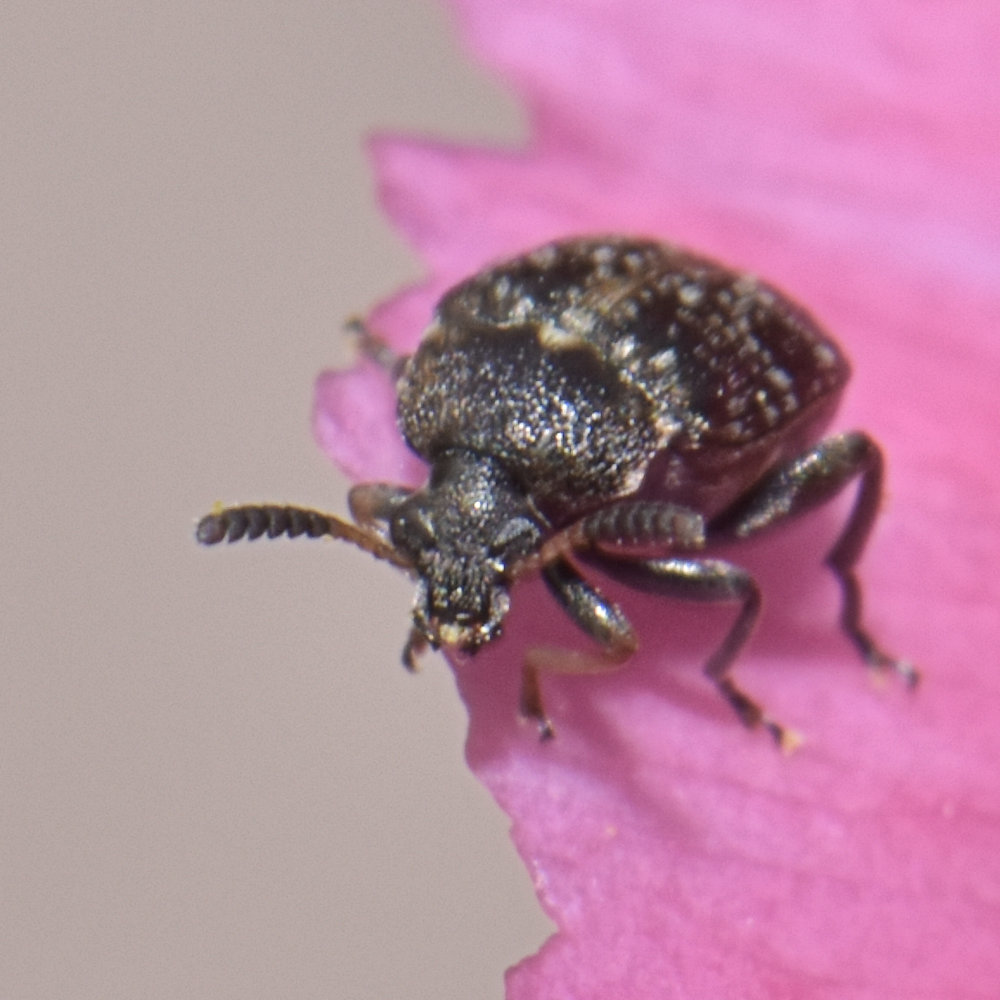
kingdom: Animalia
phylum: Arthropoda
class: Insecta
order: Coleoptera
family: Chrysomelidae
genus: Bruchus
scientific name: Bruchus brachialis
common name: Vetch bruchid
